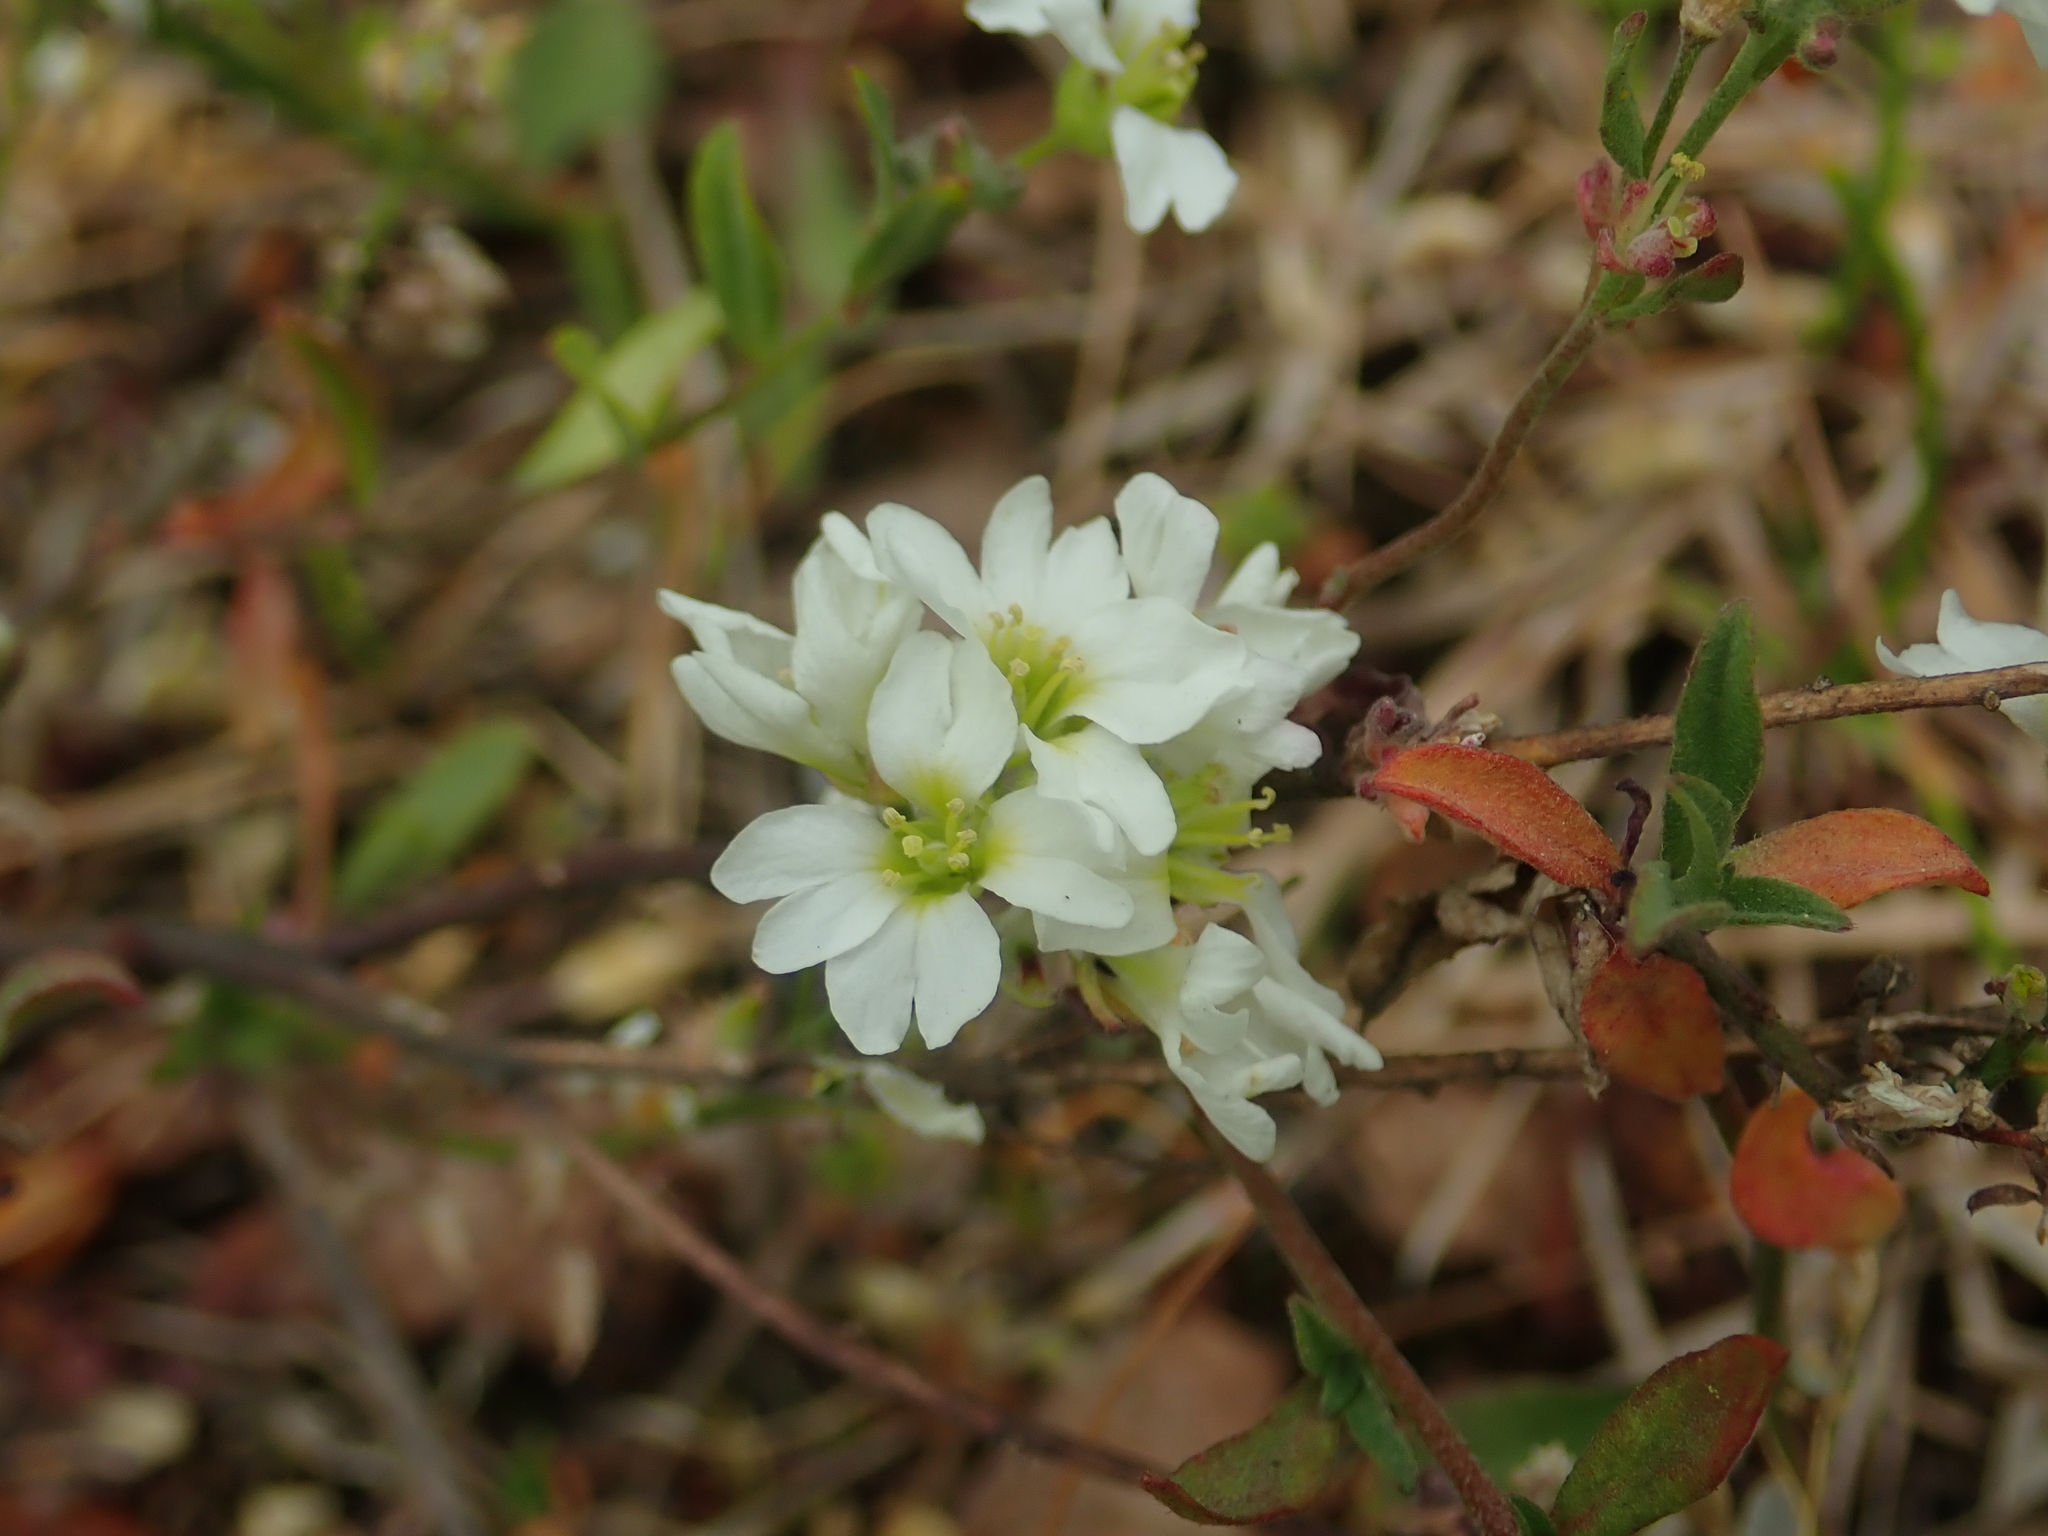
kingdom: Plantae
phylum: Tracheophyta
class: Magnoliopsida
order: Brassicales
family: Brassicaceae
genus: Berteroa
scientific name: Berteroa incana
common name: Hoary alison
